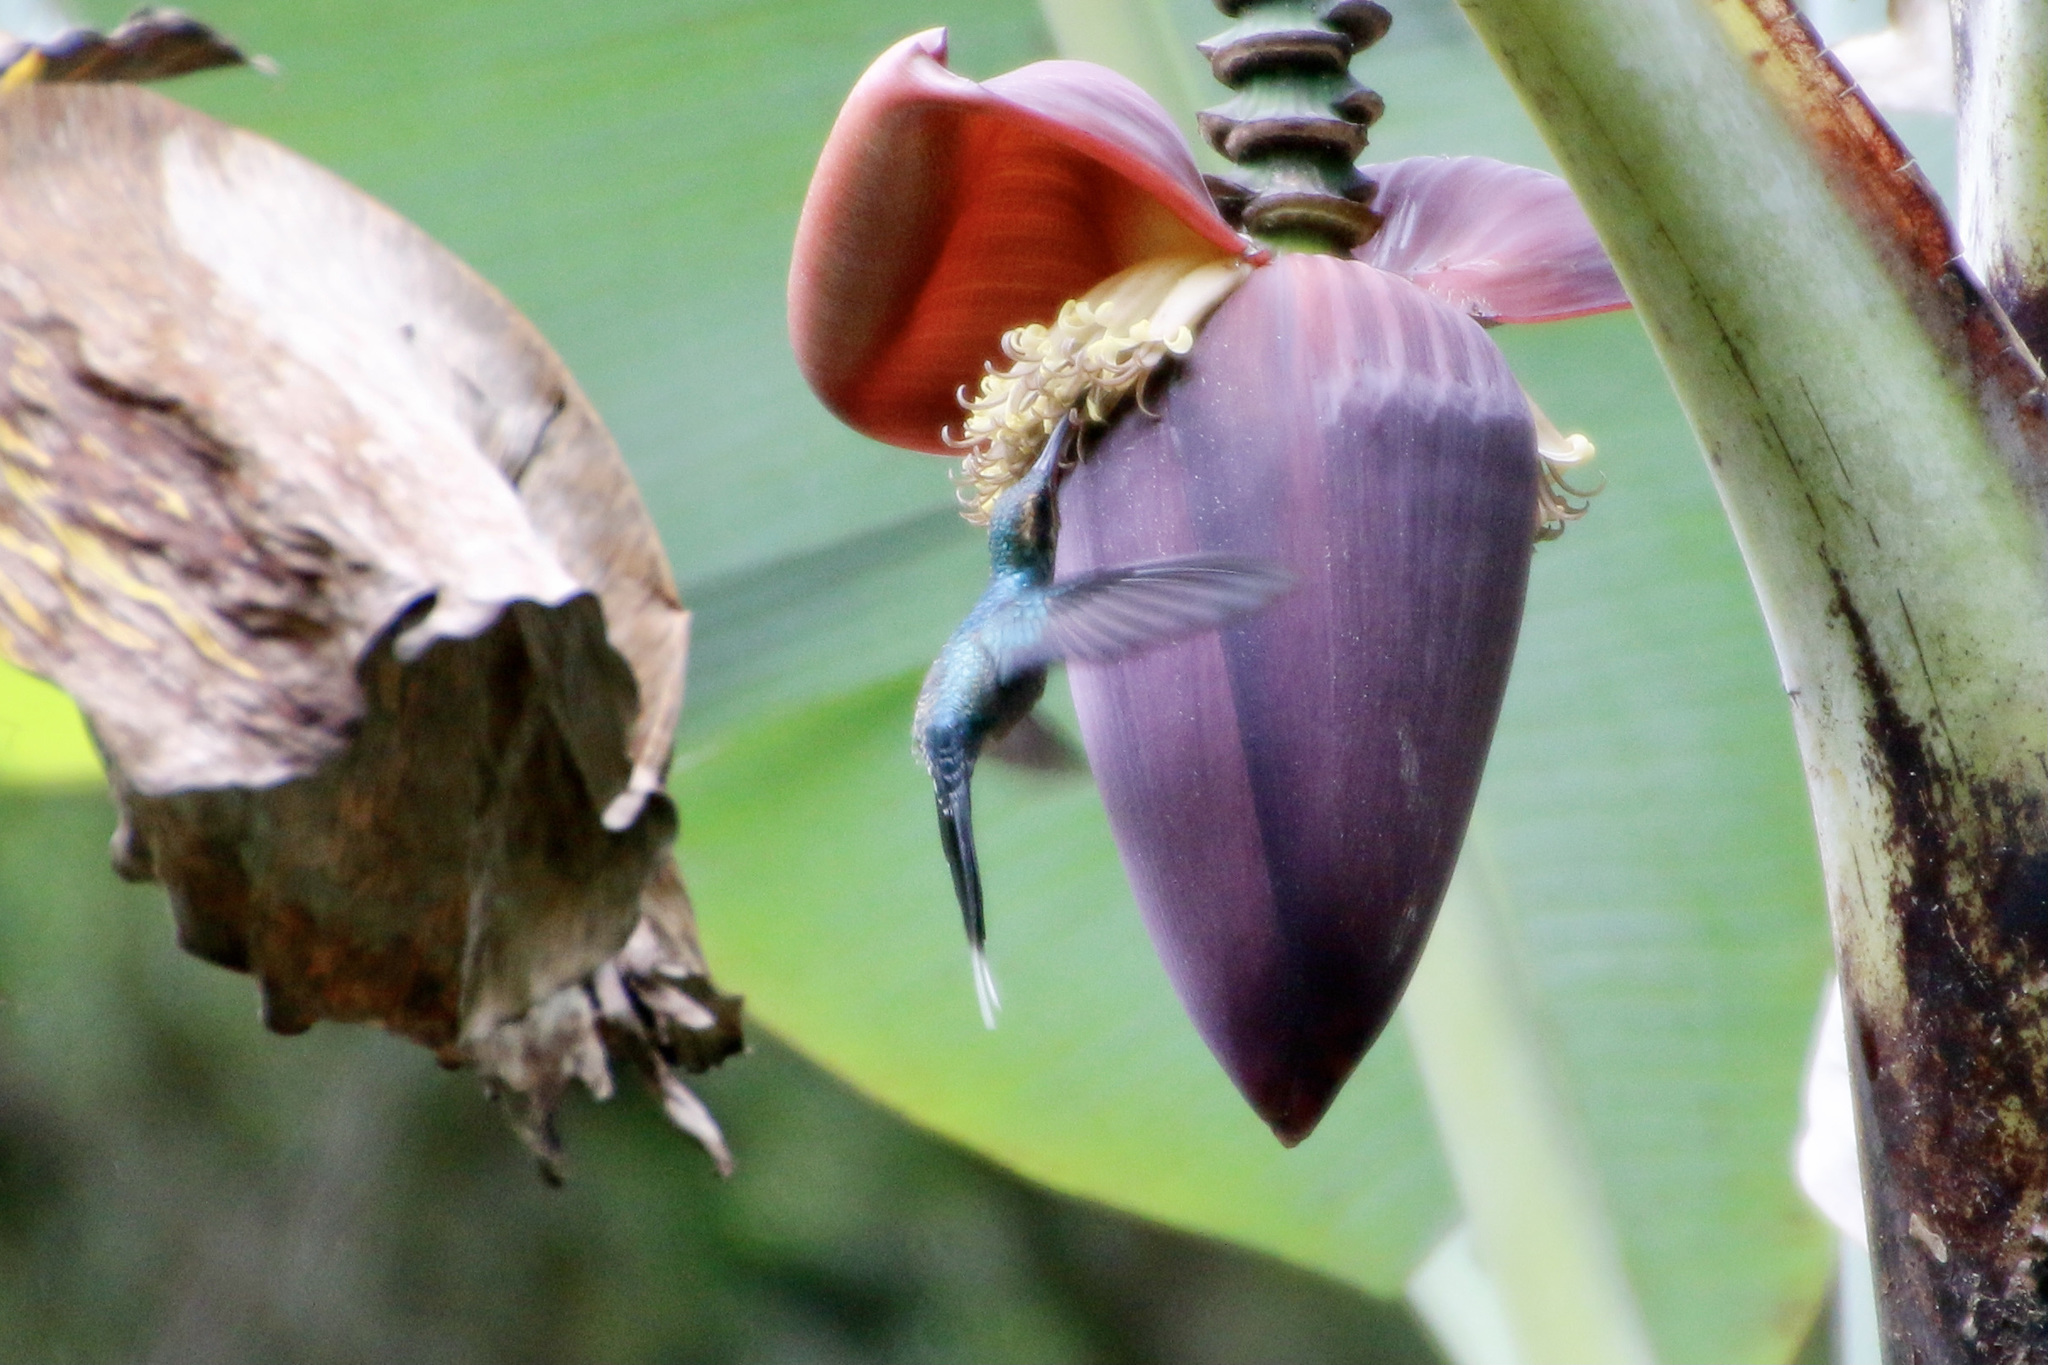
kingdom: Animalia
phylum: Chordata
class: Aves
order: Apodiformes
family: Trochilidae
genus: Phaethornis
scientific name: Phaethornis guy
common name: Green hermit
